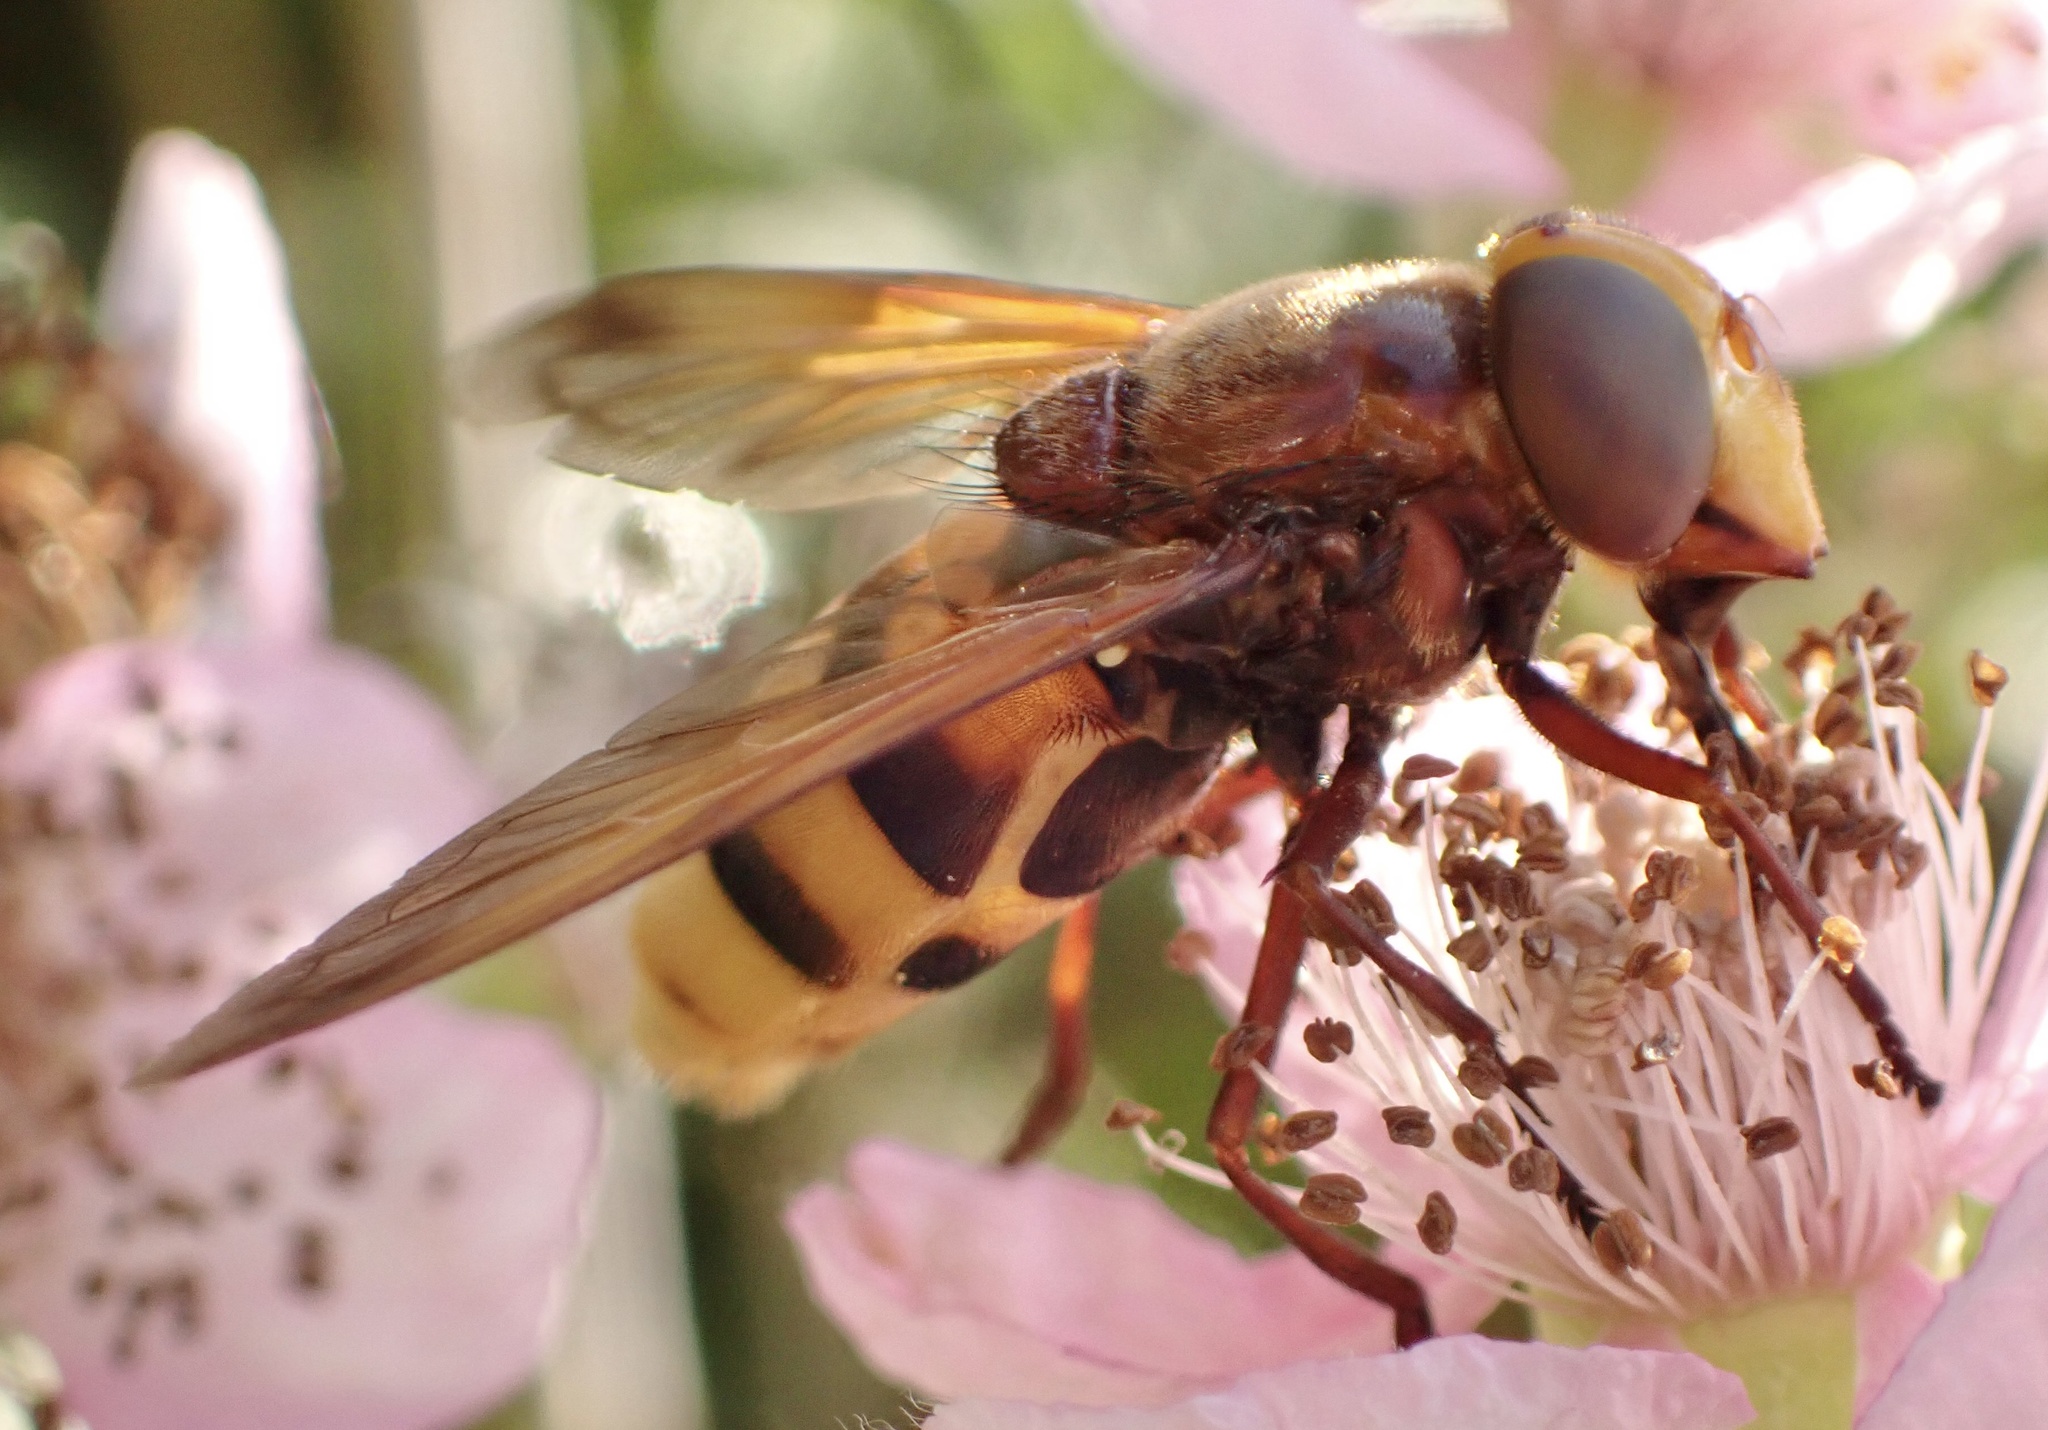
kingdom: Animalia
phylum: Arthropoda
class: Insecta
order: Diptera
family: Syrphidae
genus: Volucella
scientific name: Volucella zonaria
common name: Hornet hoverfly
